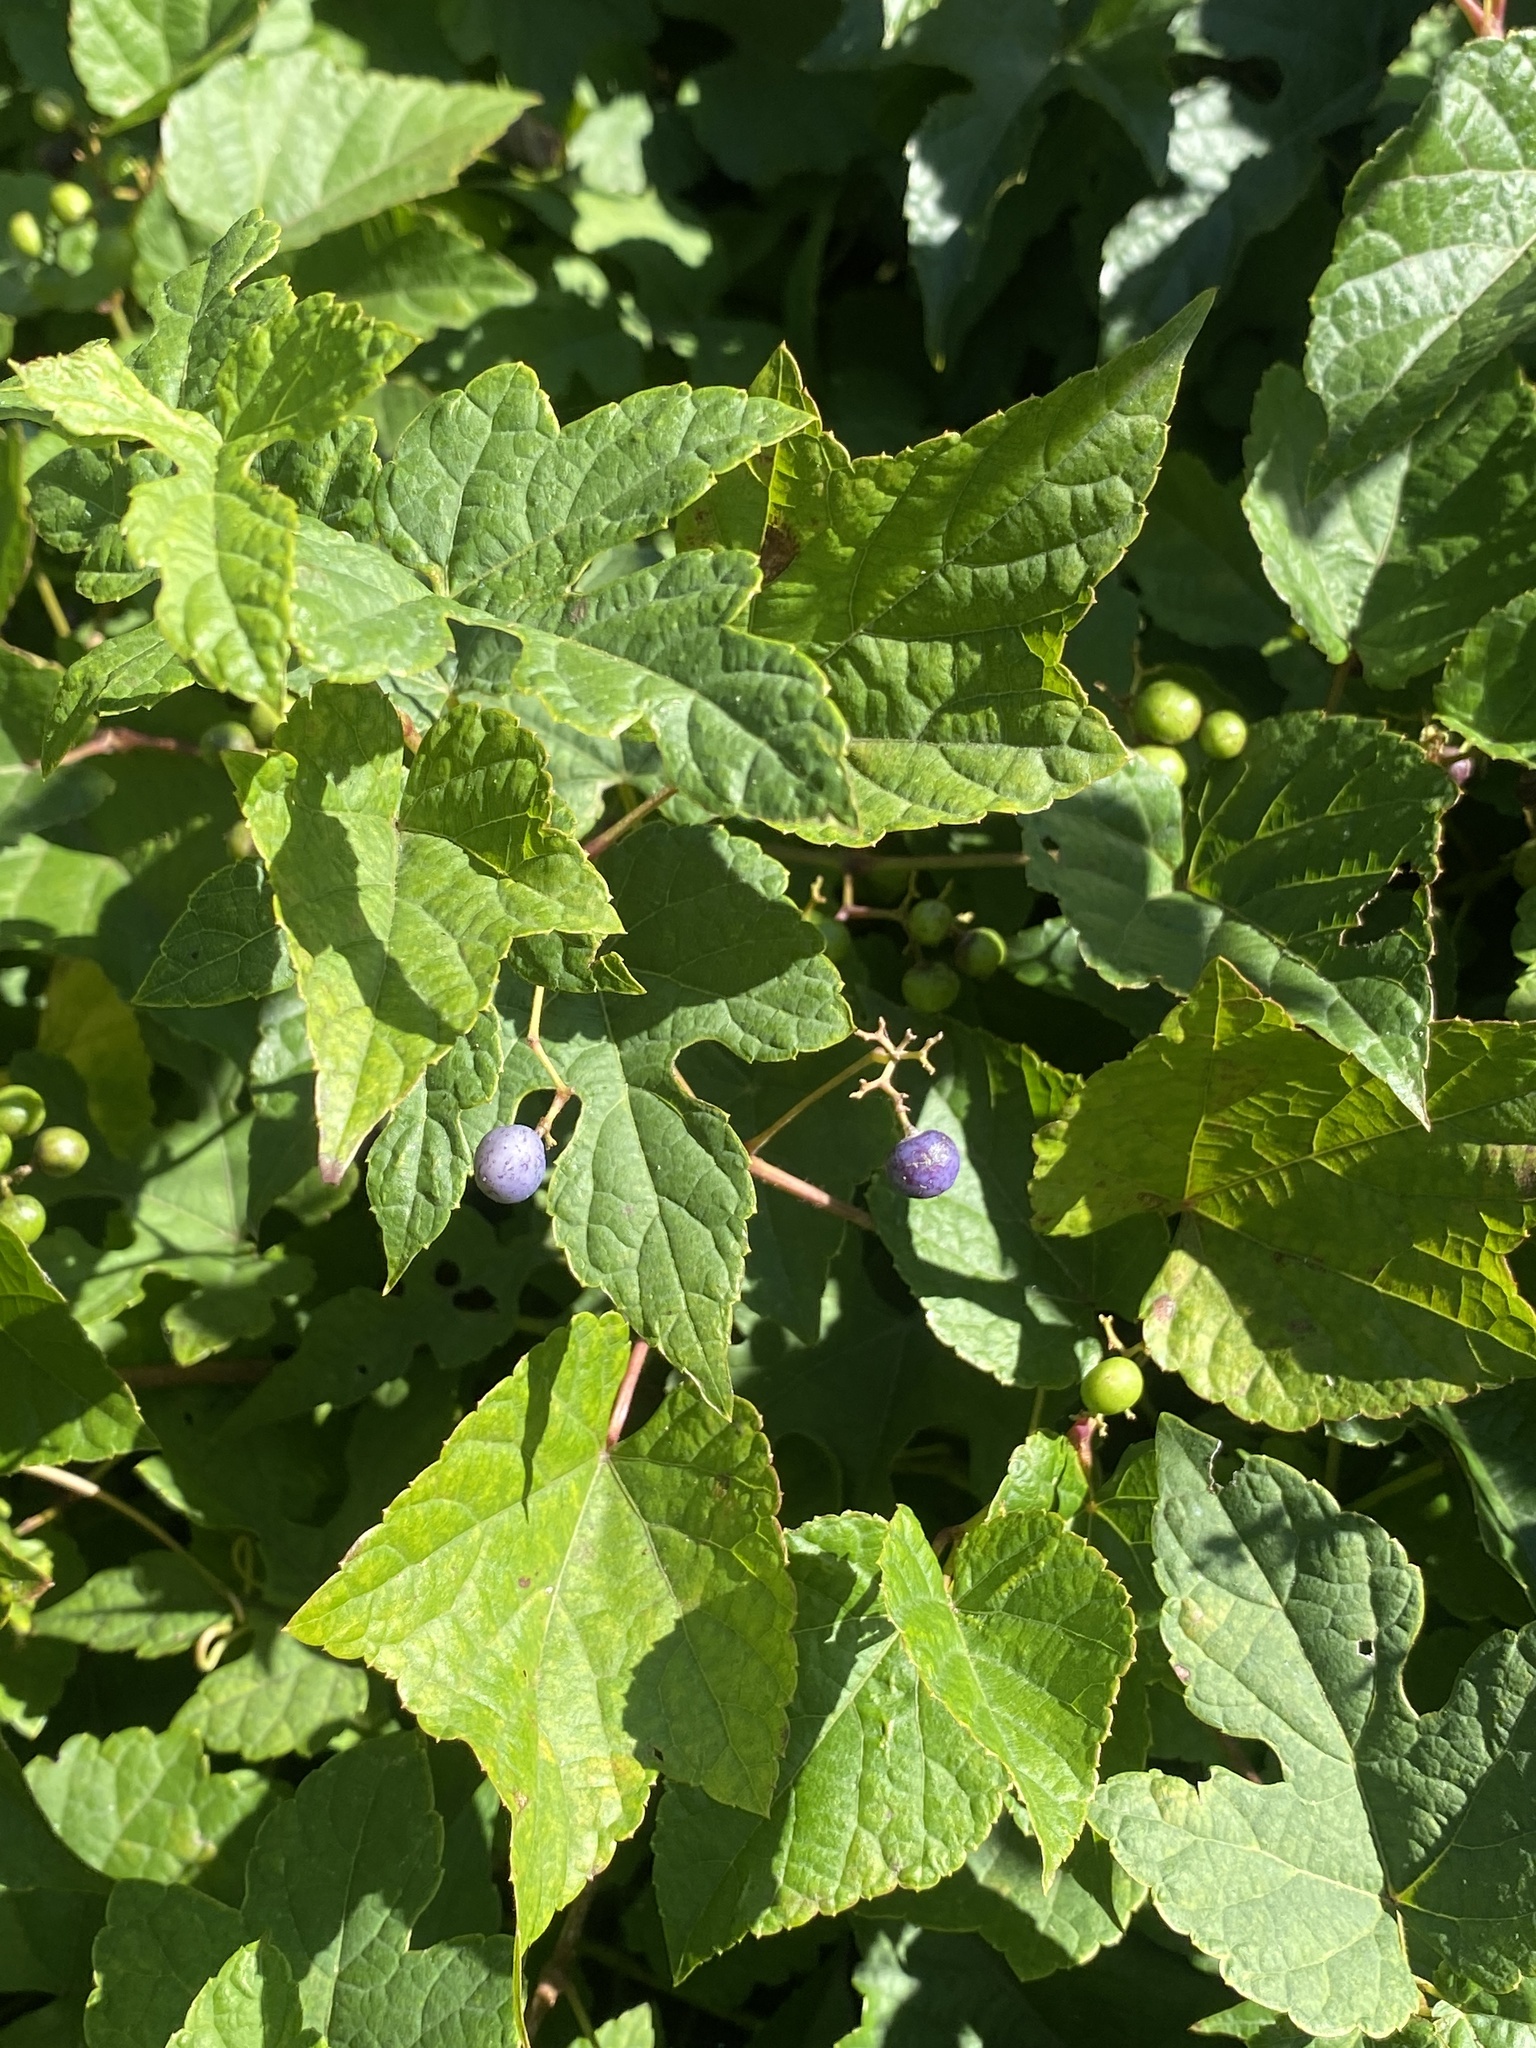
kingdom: Plantae
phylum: Tracheophyta
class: Magnoliopsida
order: Vitales
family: Vitaceae
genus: Ampelopsis
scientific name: Ampelopsis glandulosa
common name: Amur peppervine
